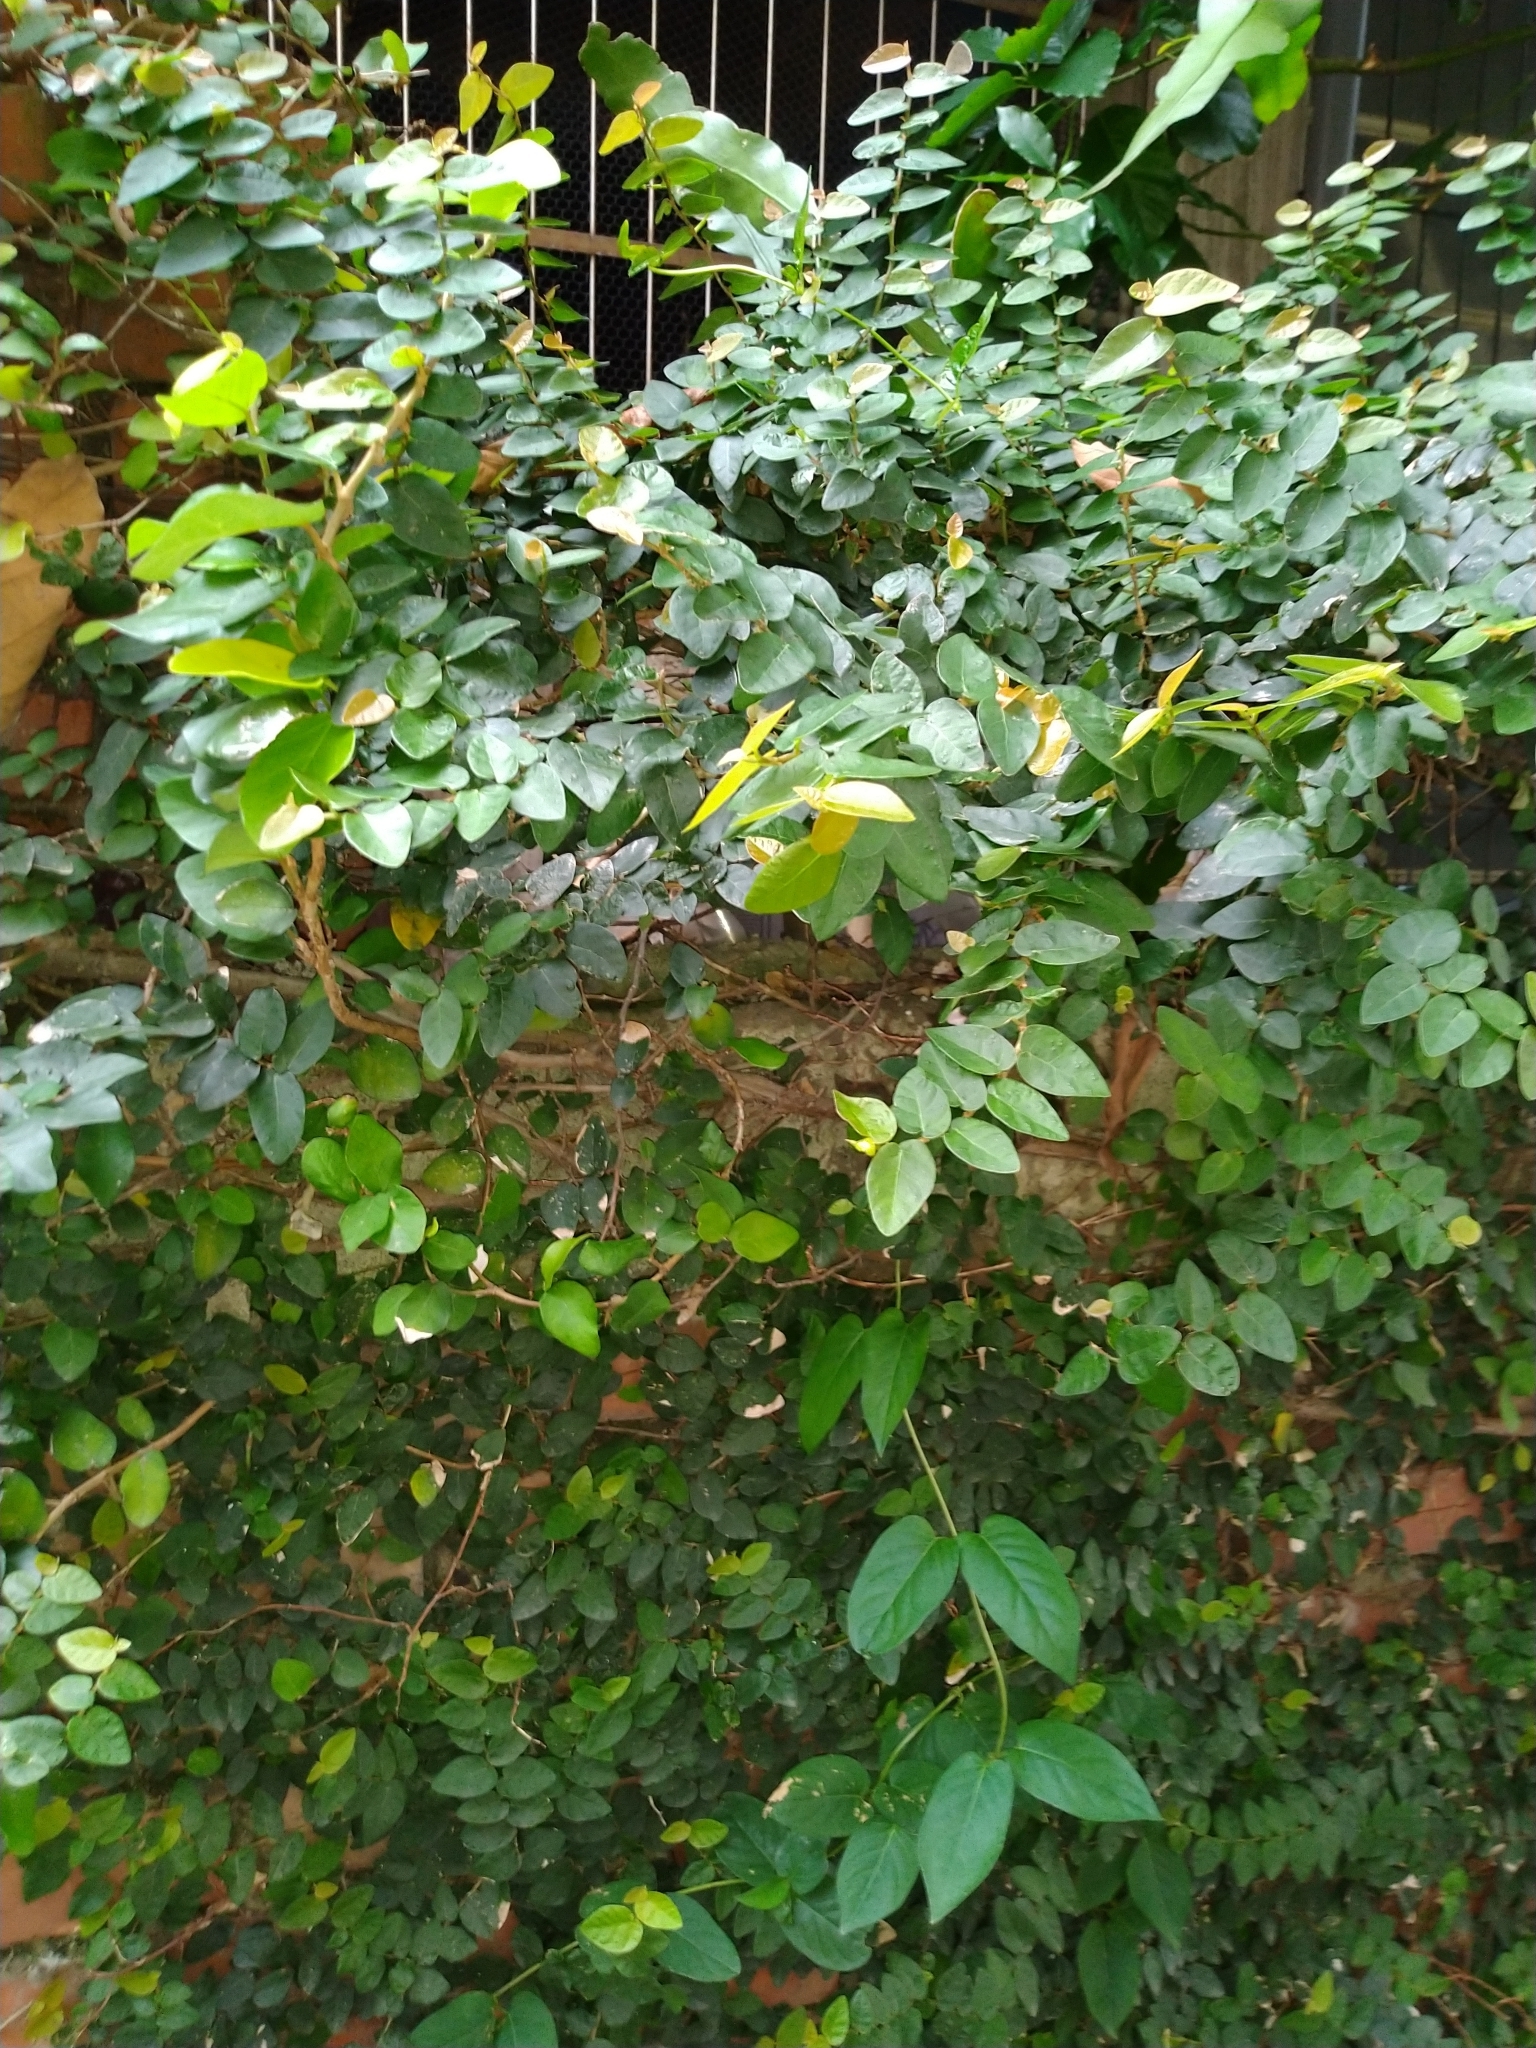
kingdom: Plantae
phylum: Tracheophyta
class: Magnoliopsida
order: Rosales
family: Moraceae
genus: Ficus
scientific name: Ficus pumila
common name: Climbingfig
